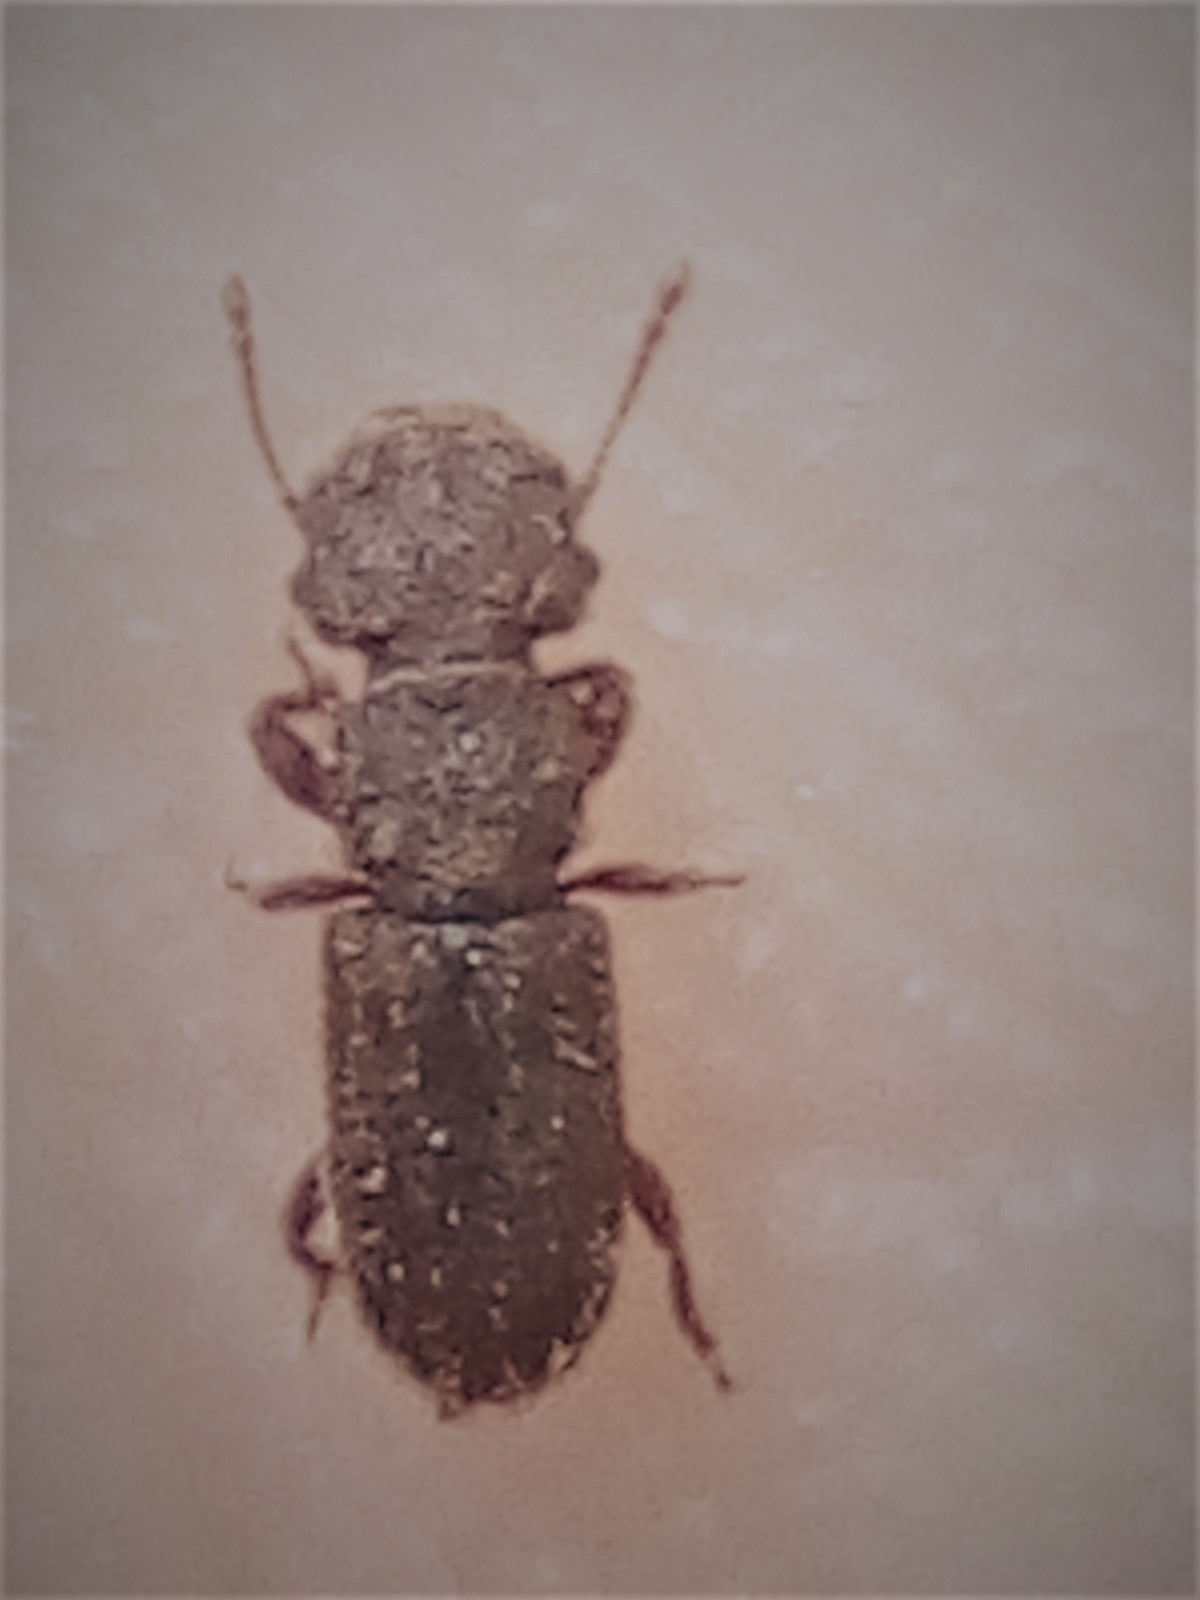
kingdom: Animalia
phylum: Arthropoda
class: Insecta
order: Coleoptera
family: Belidae
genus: Aralius
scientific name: Aralius wollastoni
